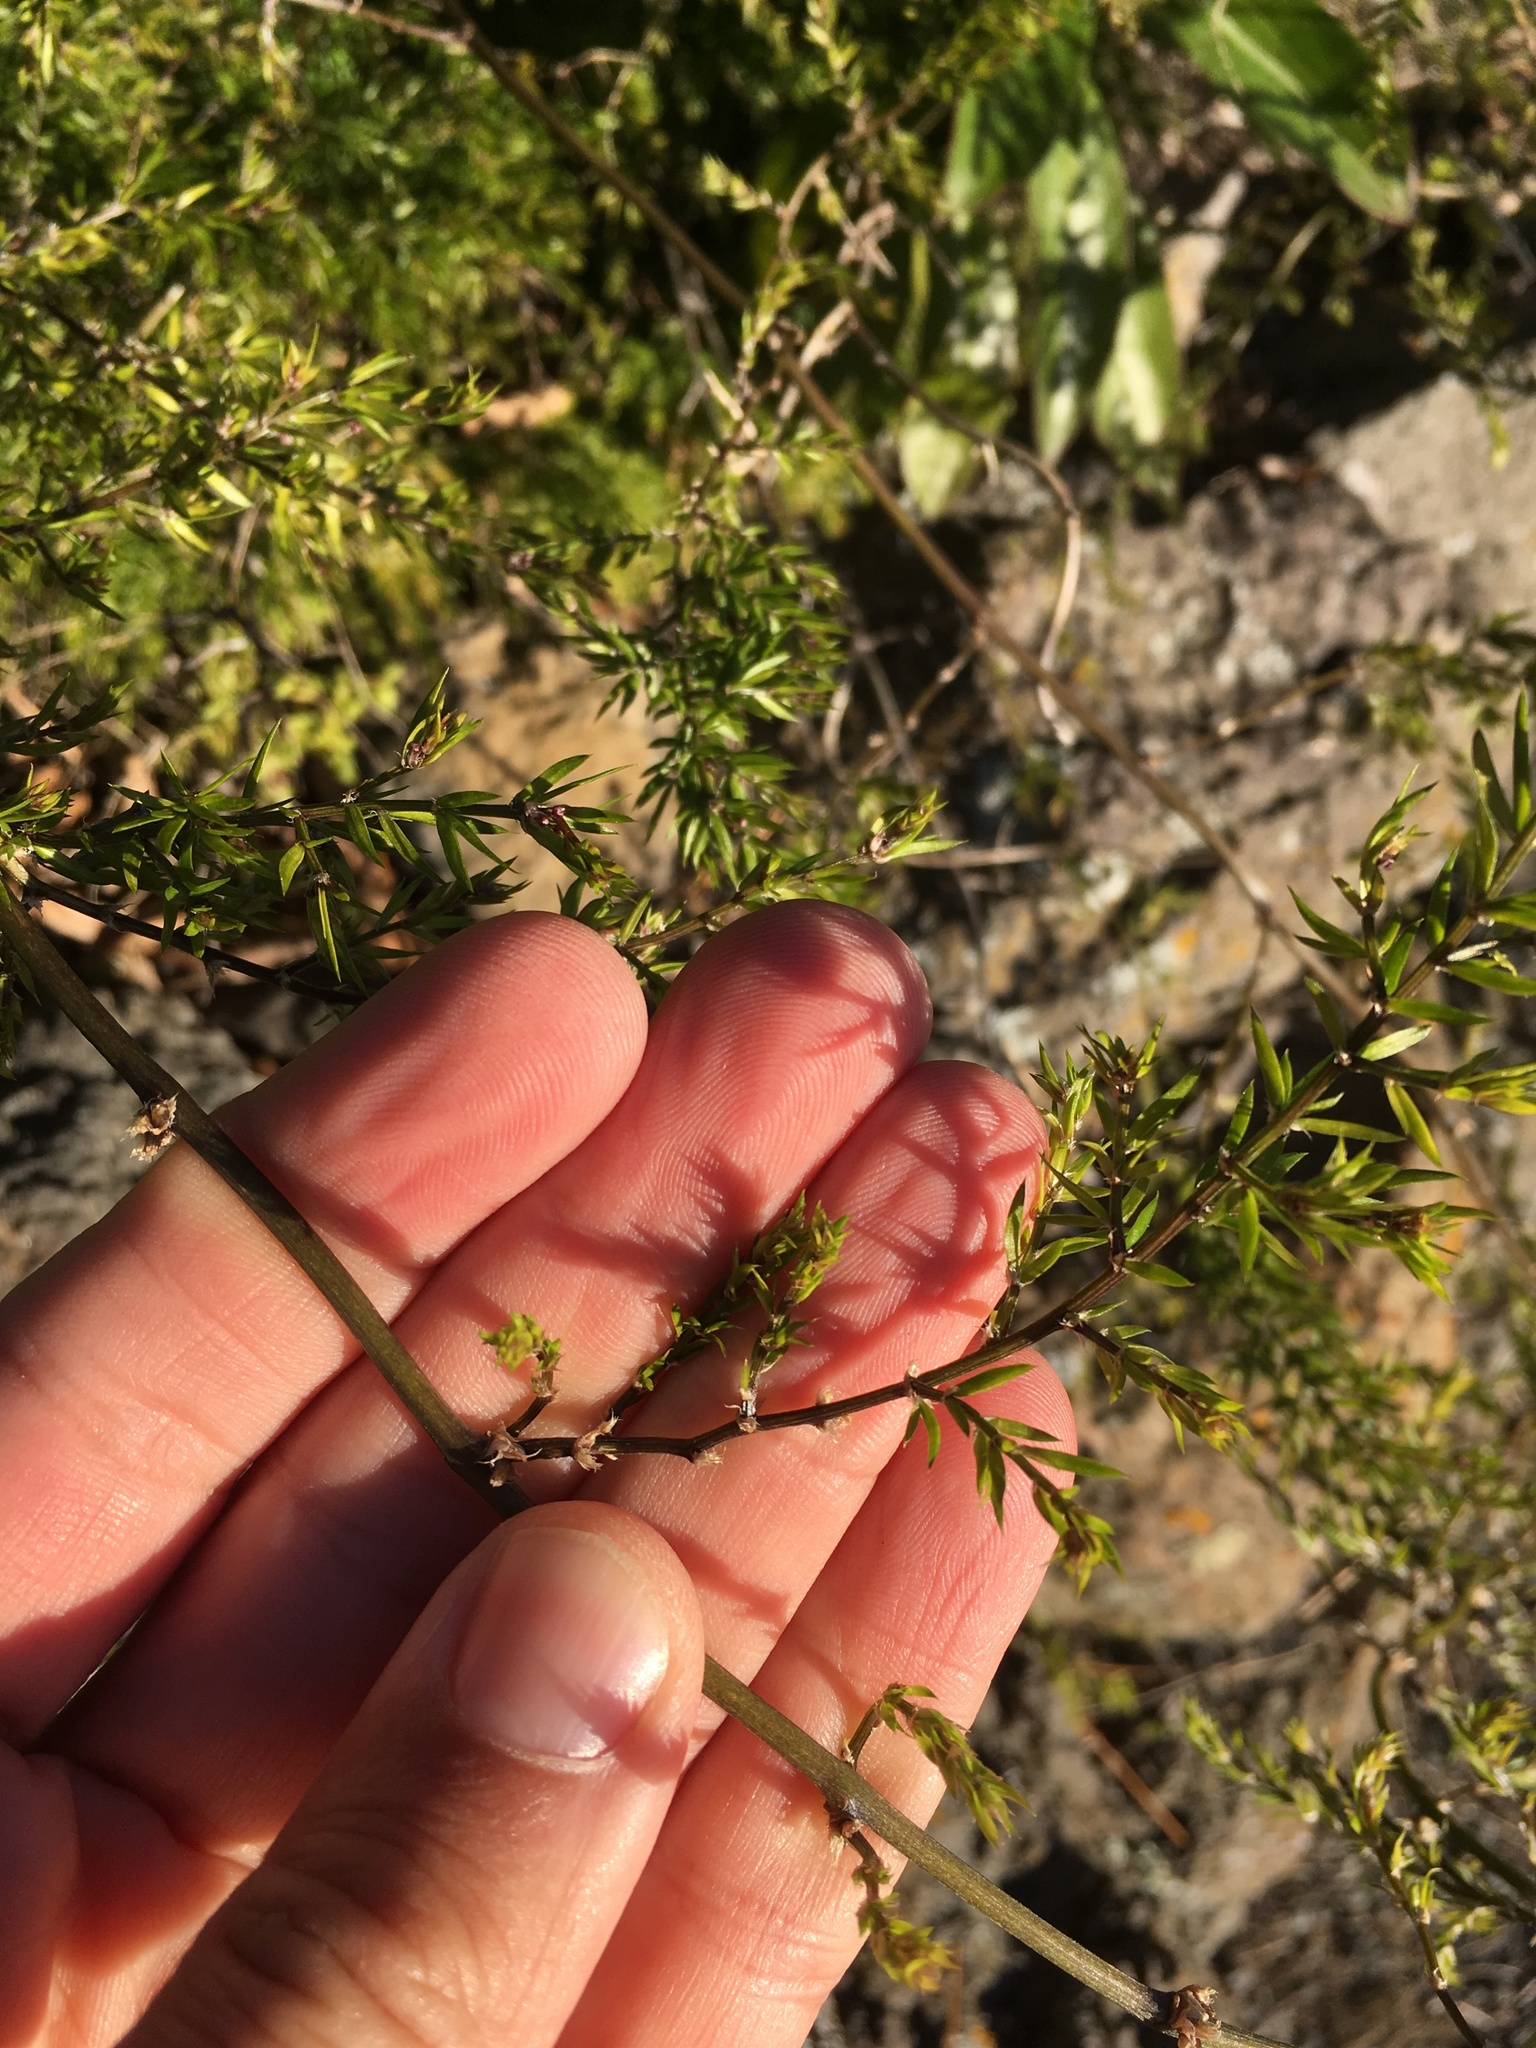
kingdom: Plantae
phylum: Tracheophyta
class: Liliopsida
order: Asparagales
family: Asparagaceae
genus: Asparagus
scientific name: Asparagus scandens
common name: Asparagus-fern
